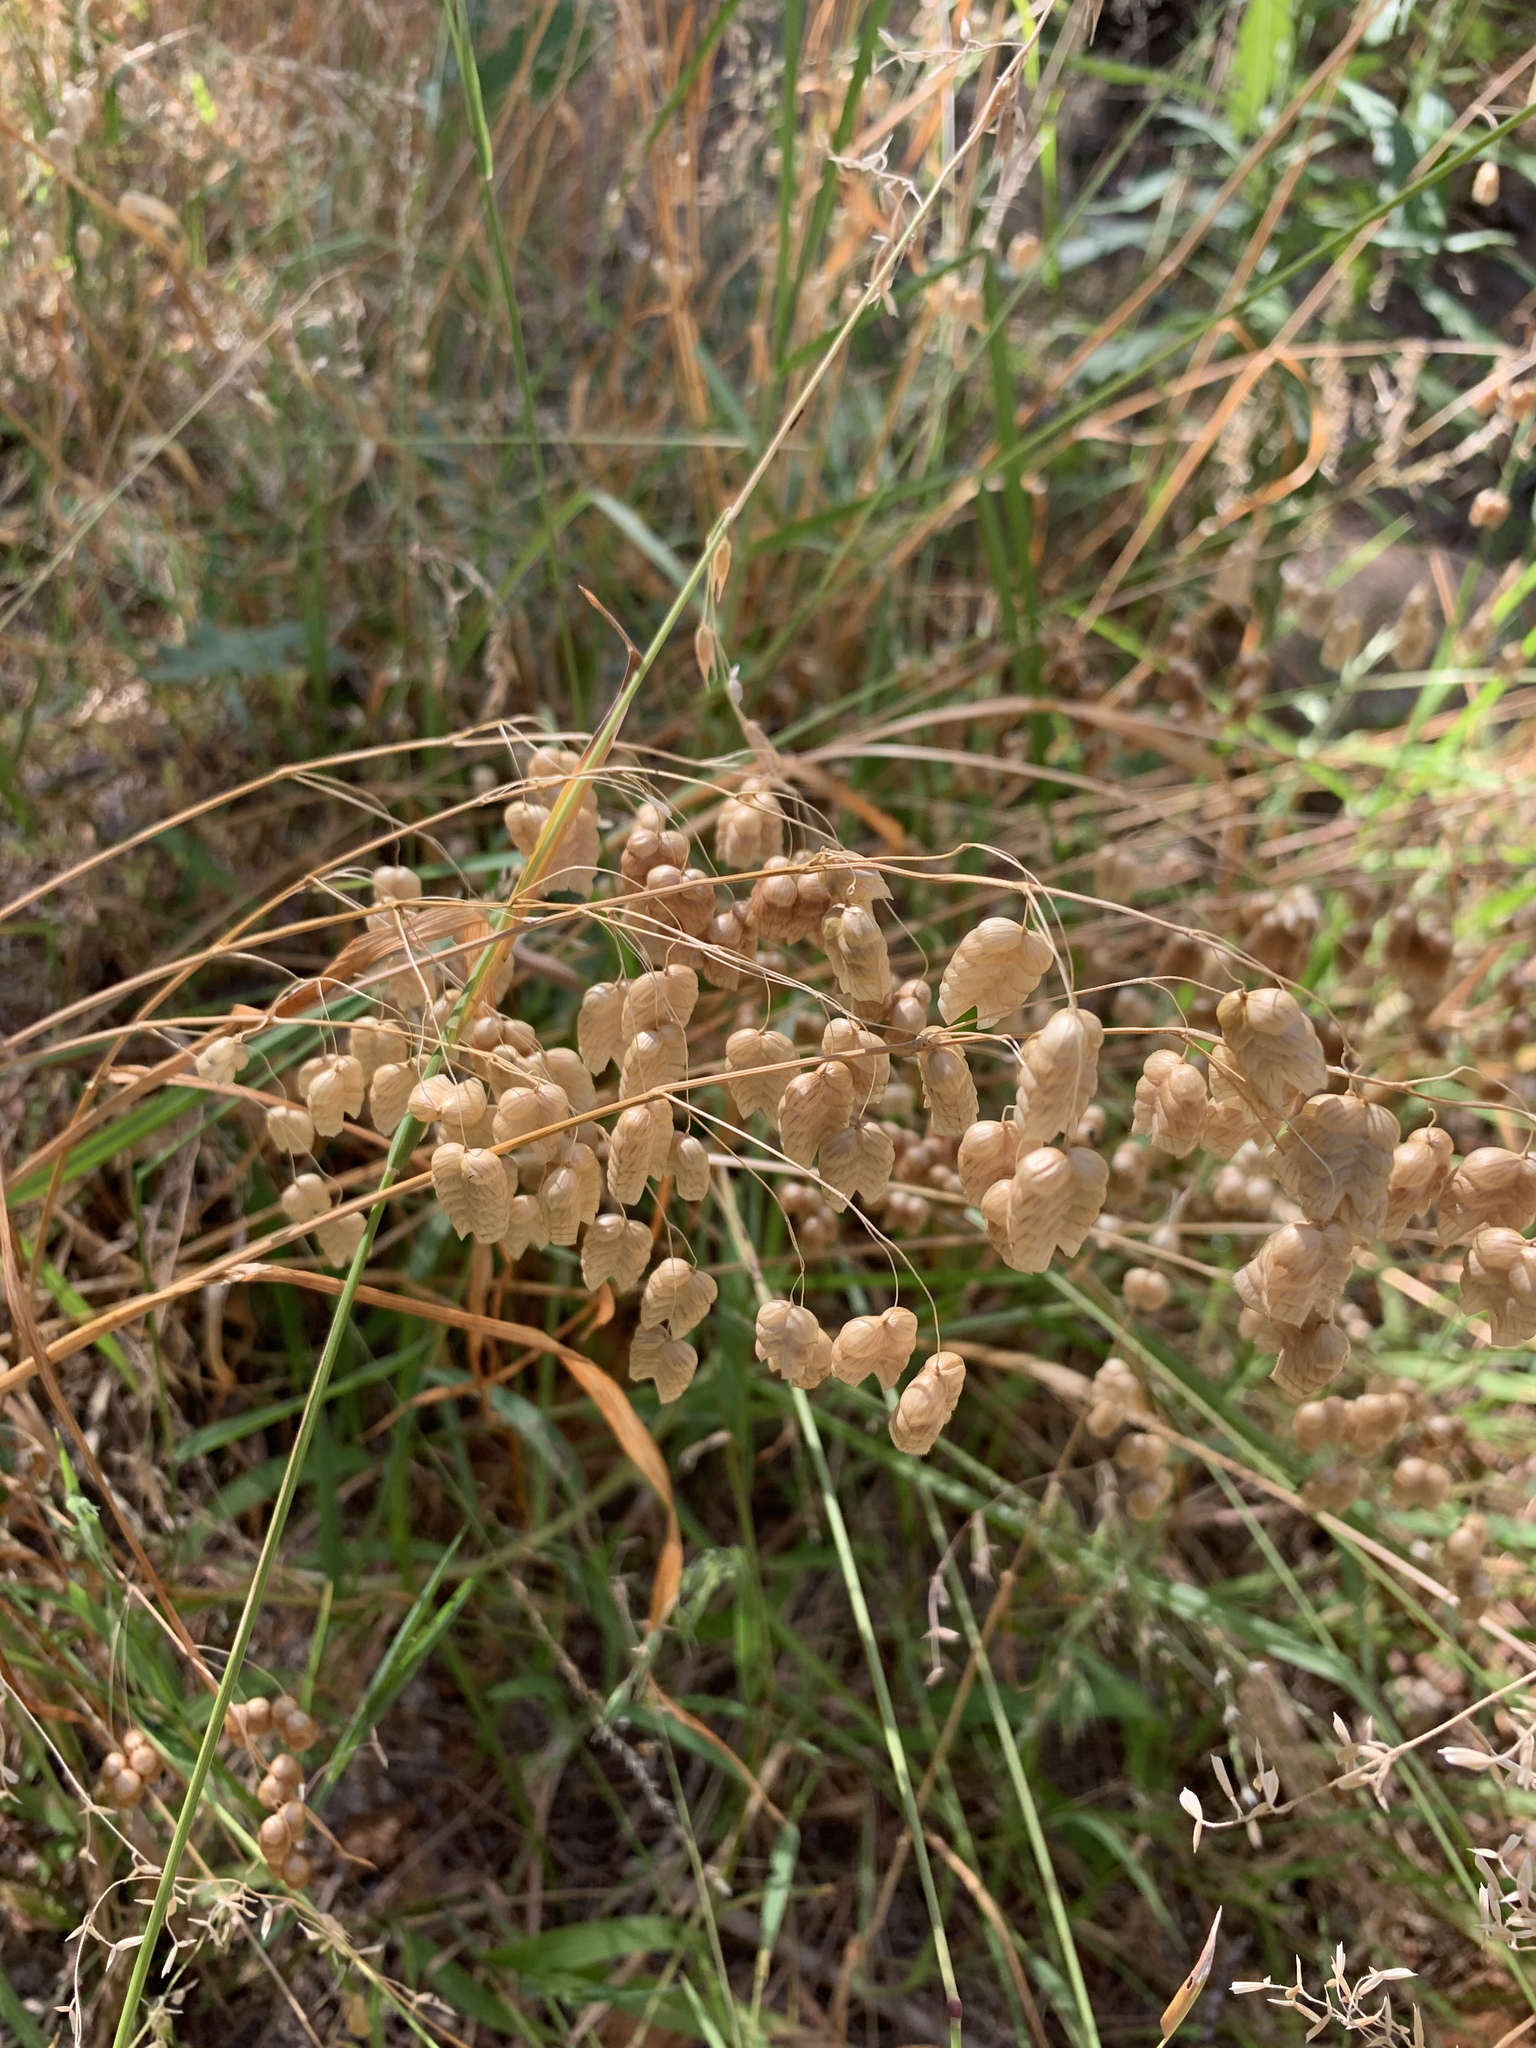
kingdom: Plantae
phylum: Tracheophyta
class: Liliopsida
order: Poales
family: Poaceae
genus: Briza
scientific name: Briza maxima
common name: Big quakinggrass
